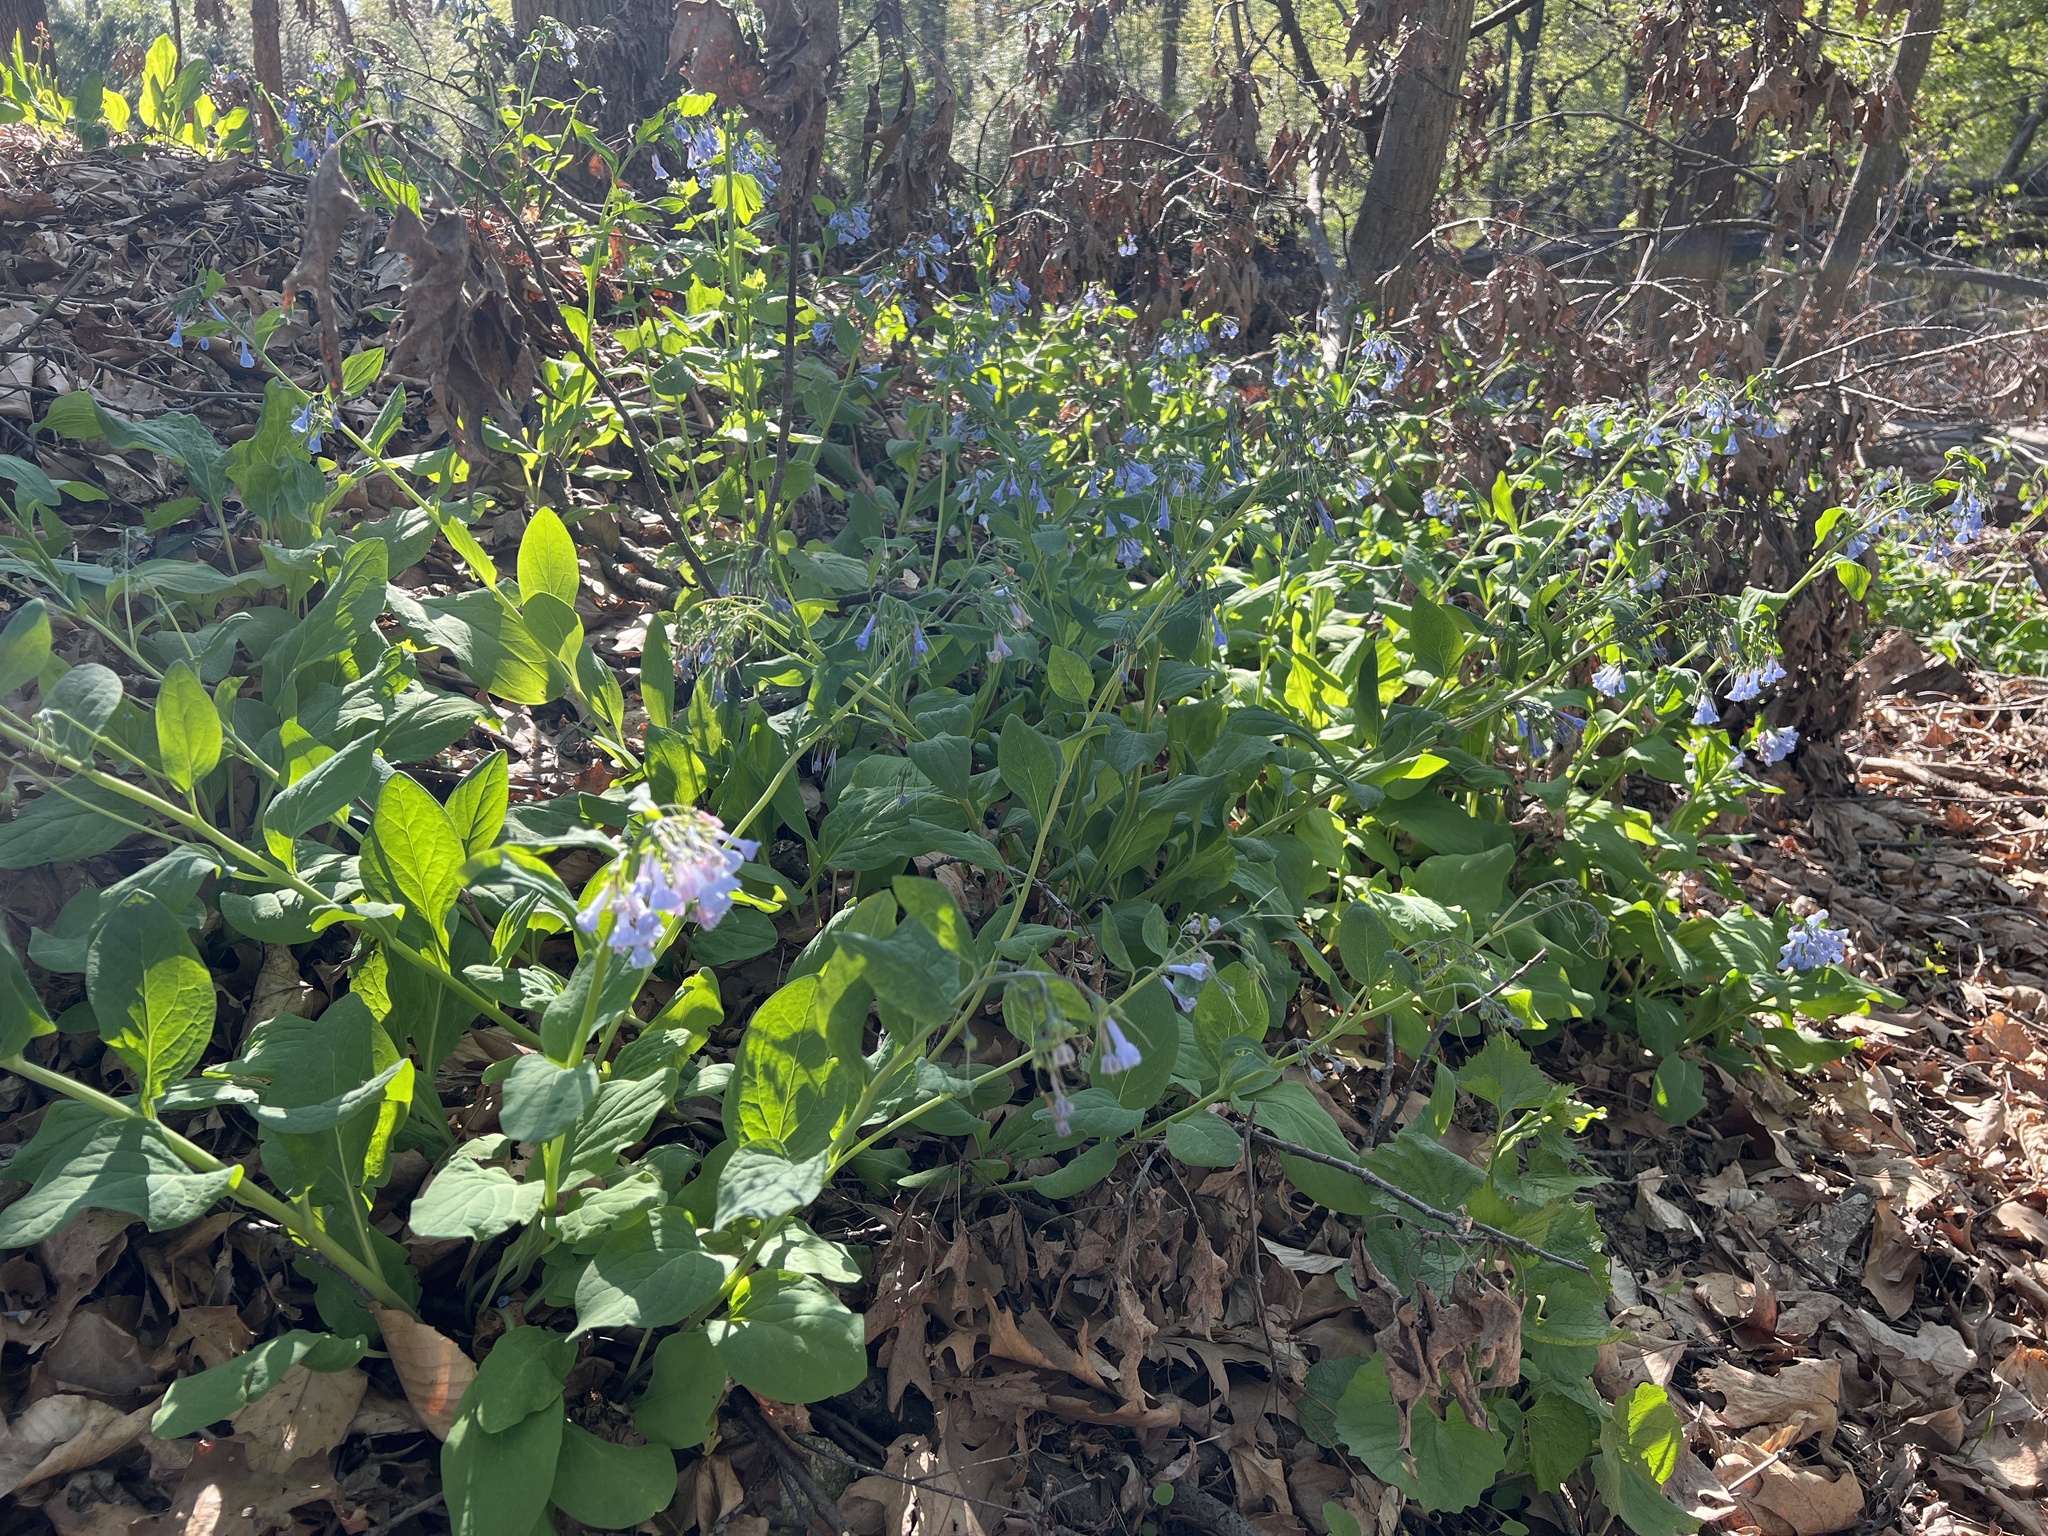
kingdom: Plantae
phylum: Tracheophyta
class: Magnoliopsida
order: Boraginales
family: Boraginaceae
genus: Mertensia
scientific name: Mertensia virginica
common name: Virginia bluebells
